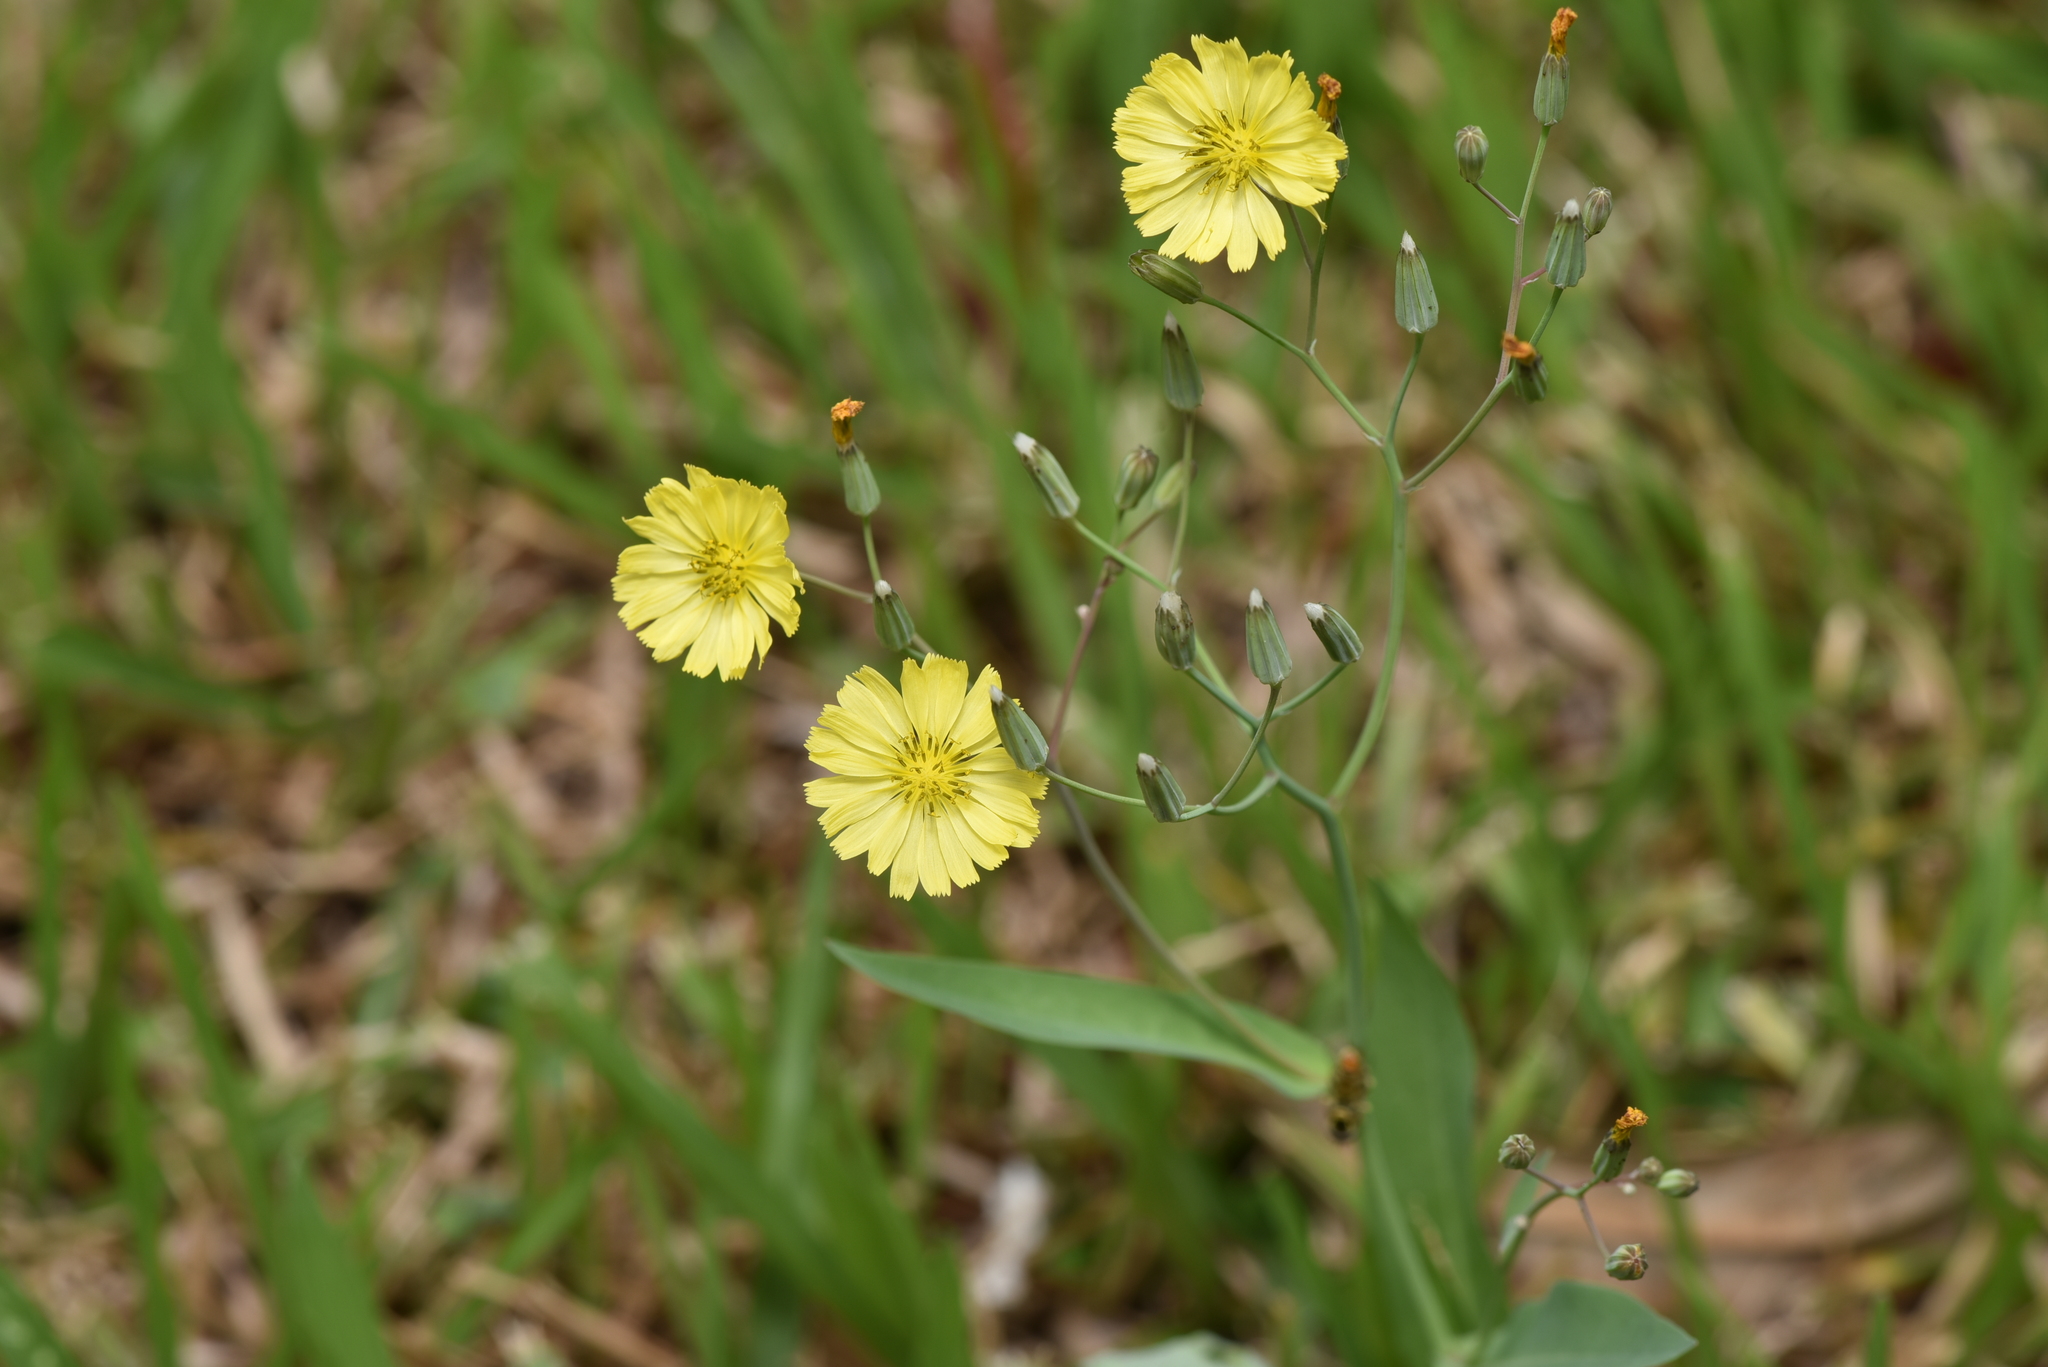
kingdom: Plantae
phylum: Tracheophyta
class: Magnoliopsida
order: Asterales
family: Asteraceae
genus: Ixeris
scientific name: Ixeris chinensis
